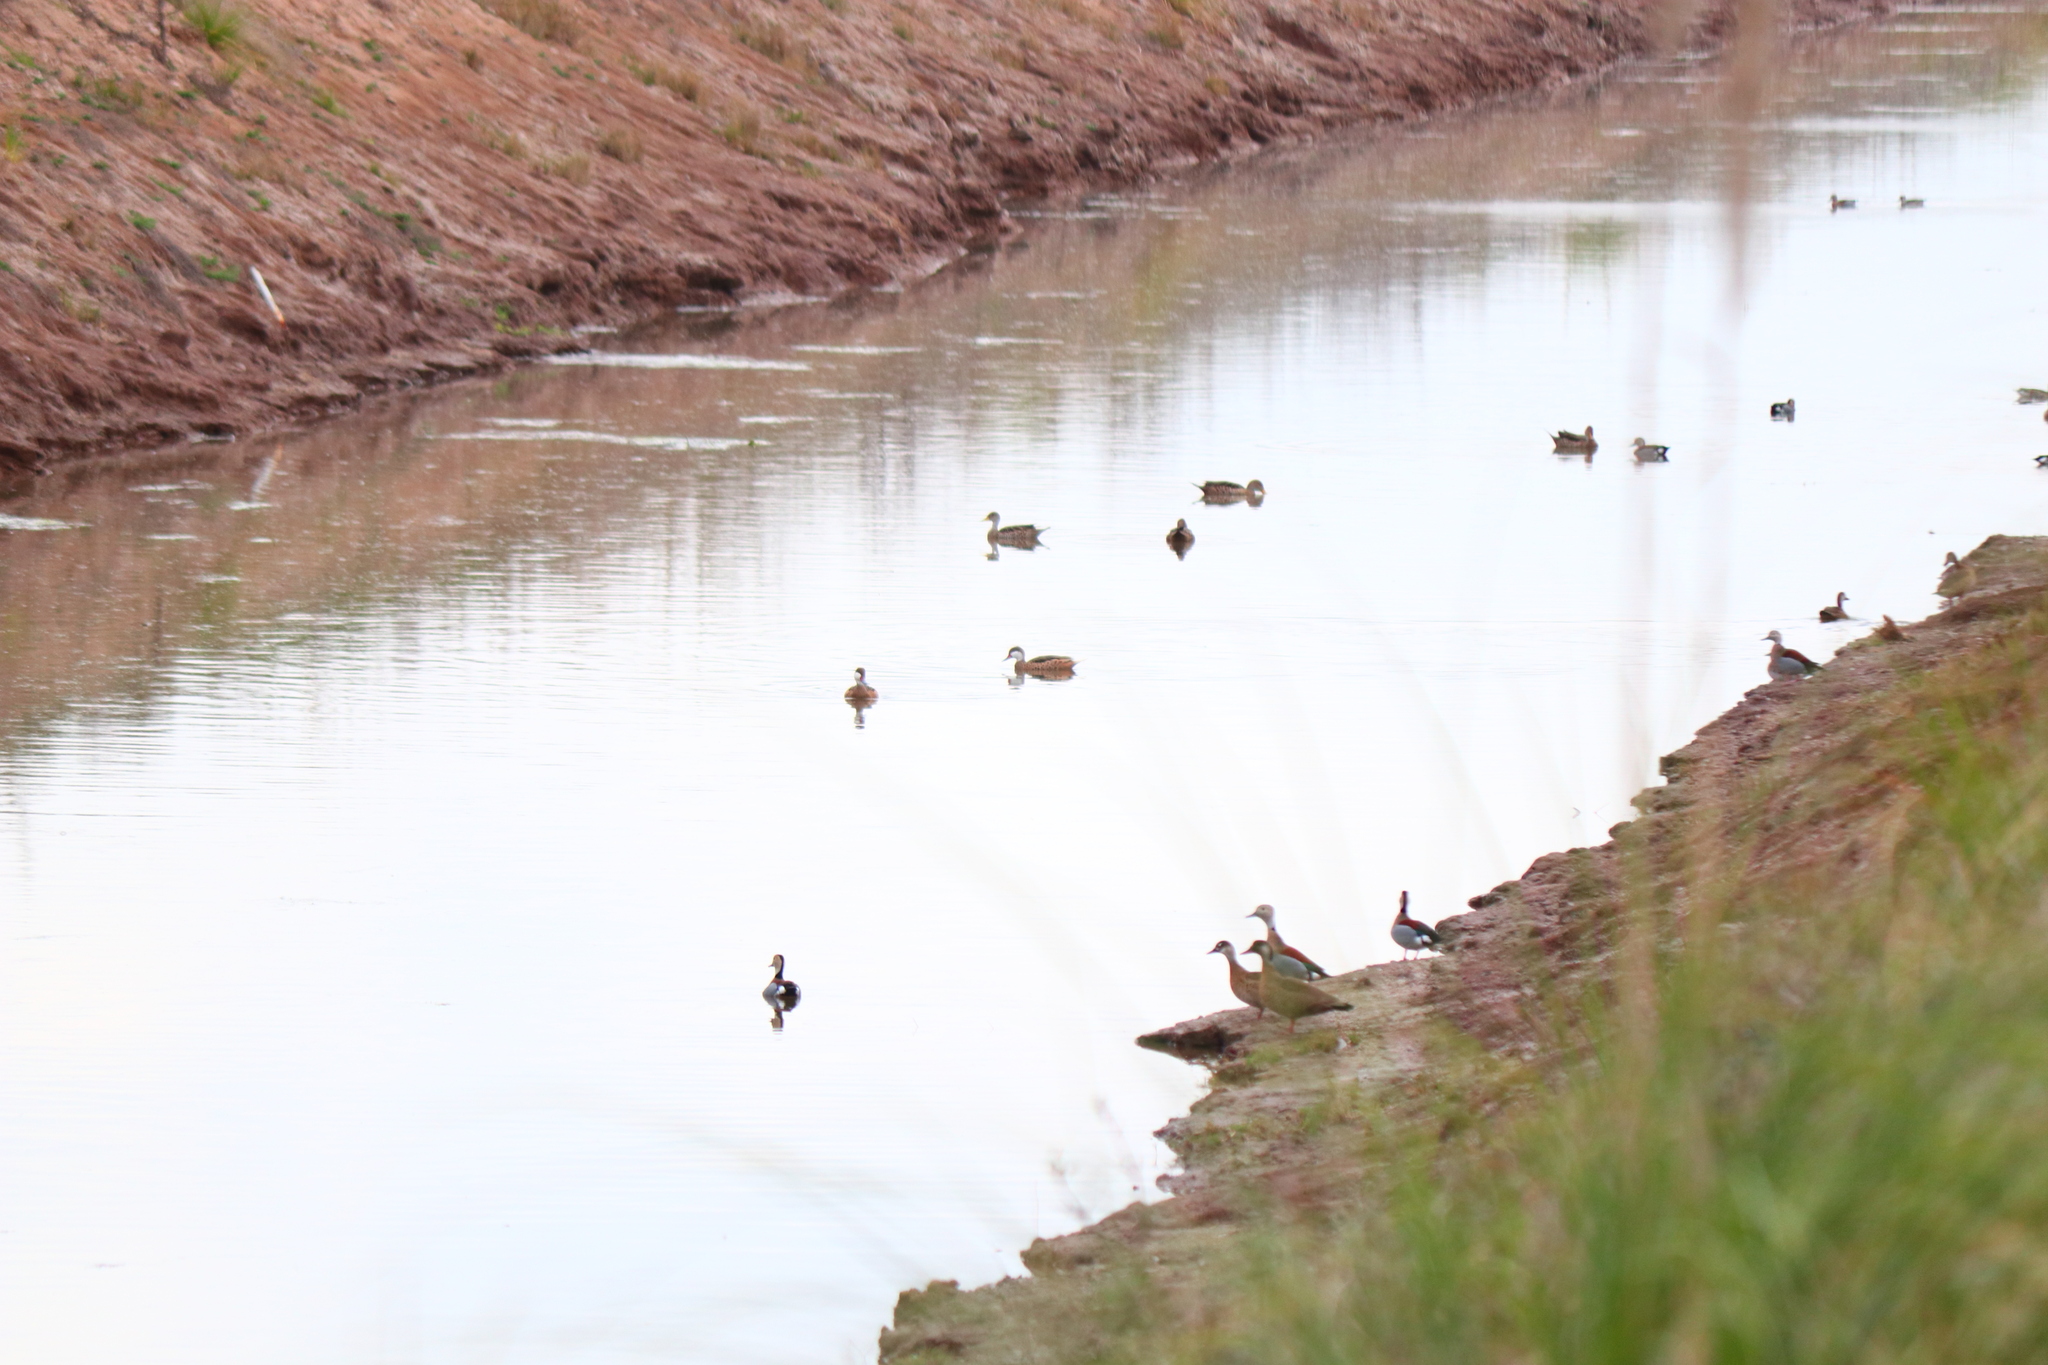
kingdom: Animalia
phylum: Chordata
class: Aves
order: Anseriformes
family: Anatidae
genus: Anas
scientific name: Anas georgica
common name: Yellow-billed pintail
